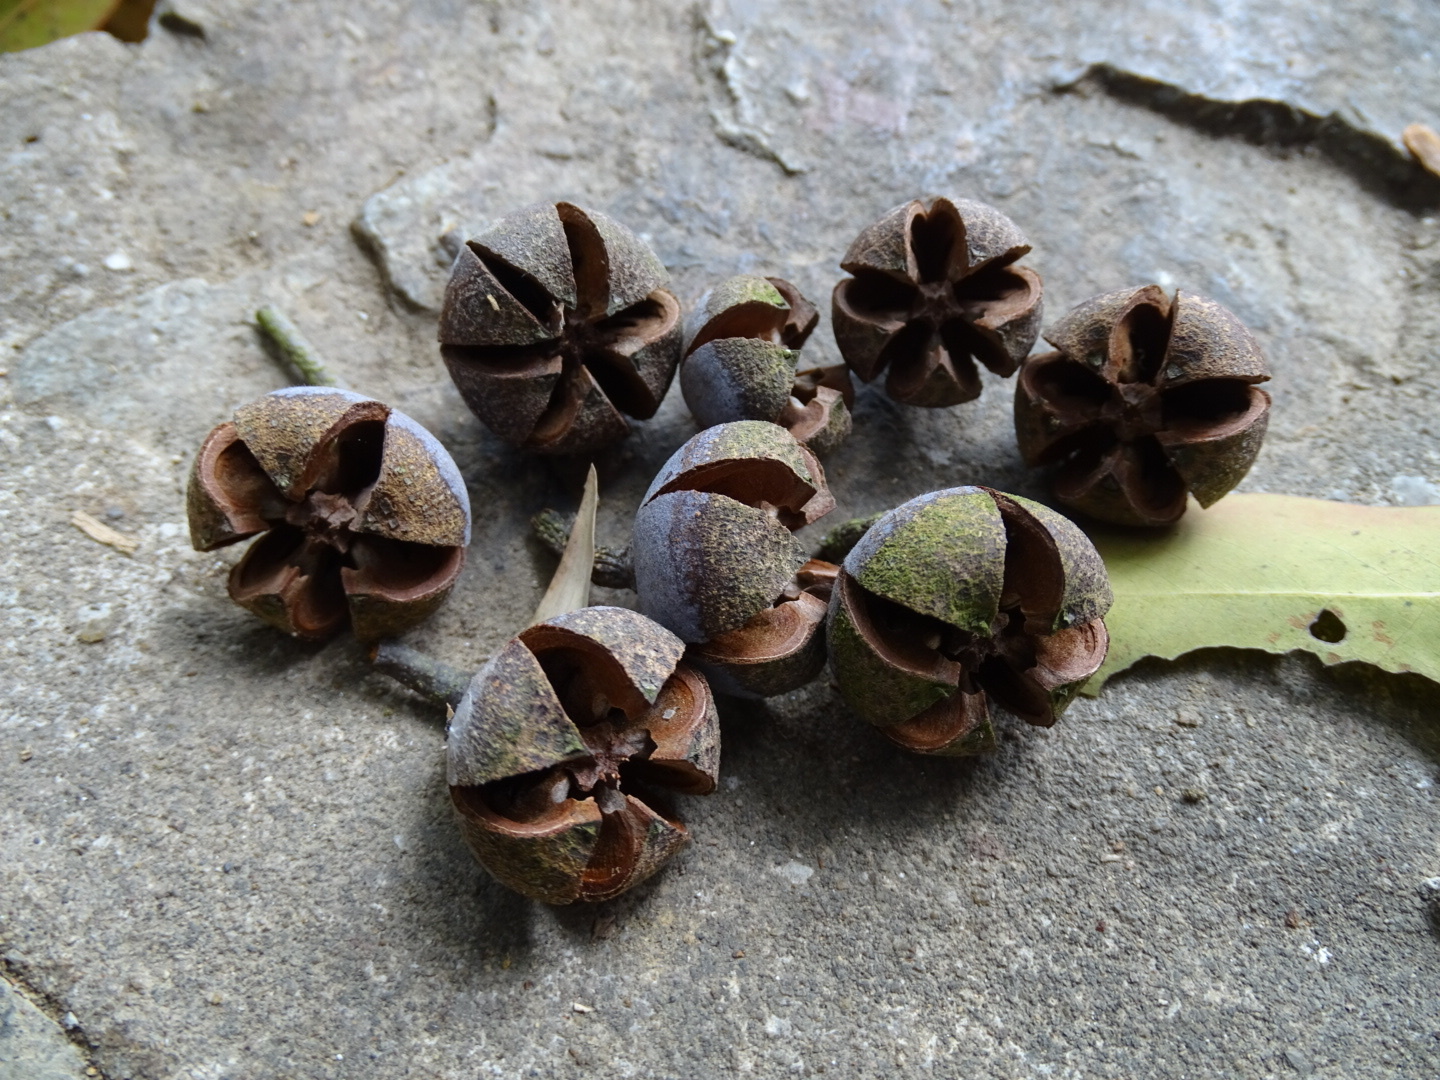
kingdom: Plantae
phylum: Tracheophyta
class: Magnoliopsida
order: Ericales
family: Theaceae
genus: Schima
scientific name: Schima superba
